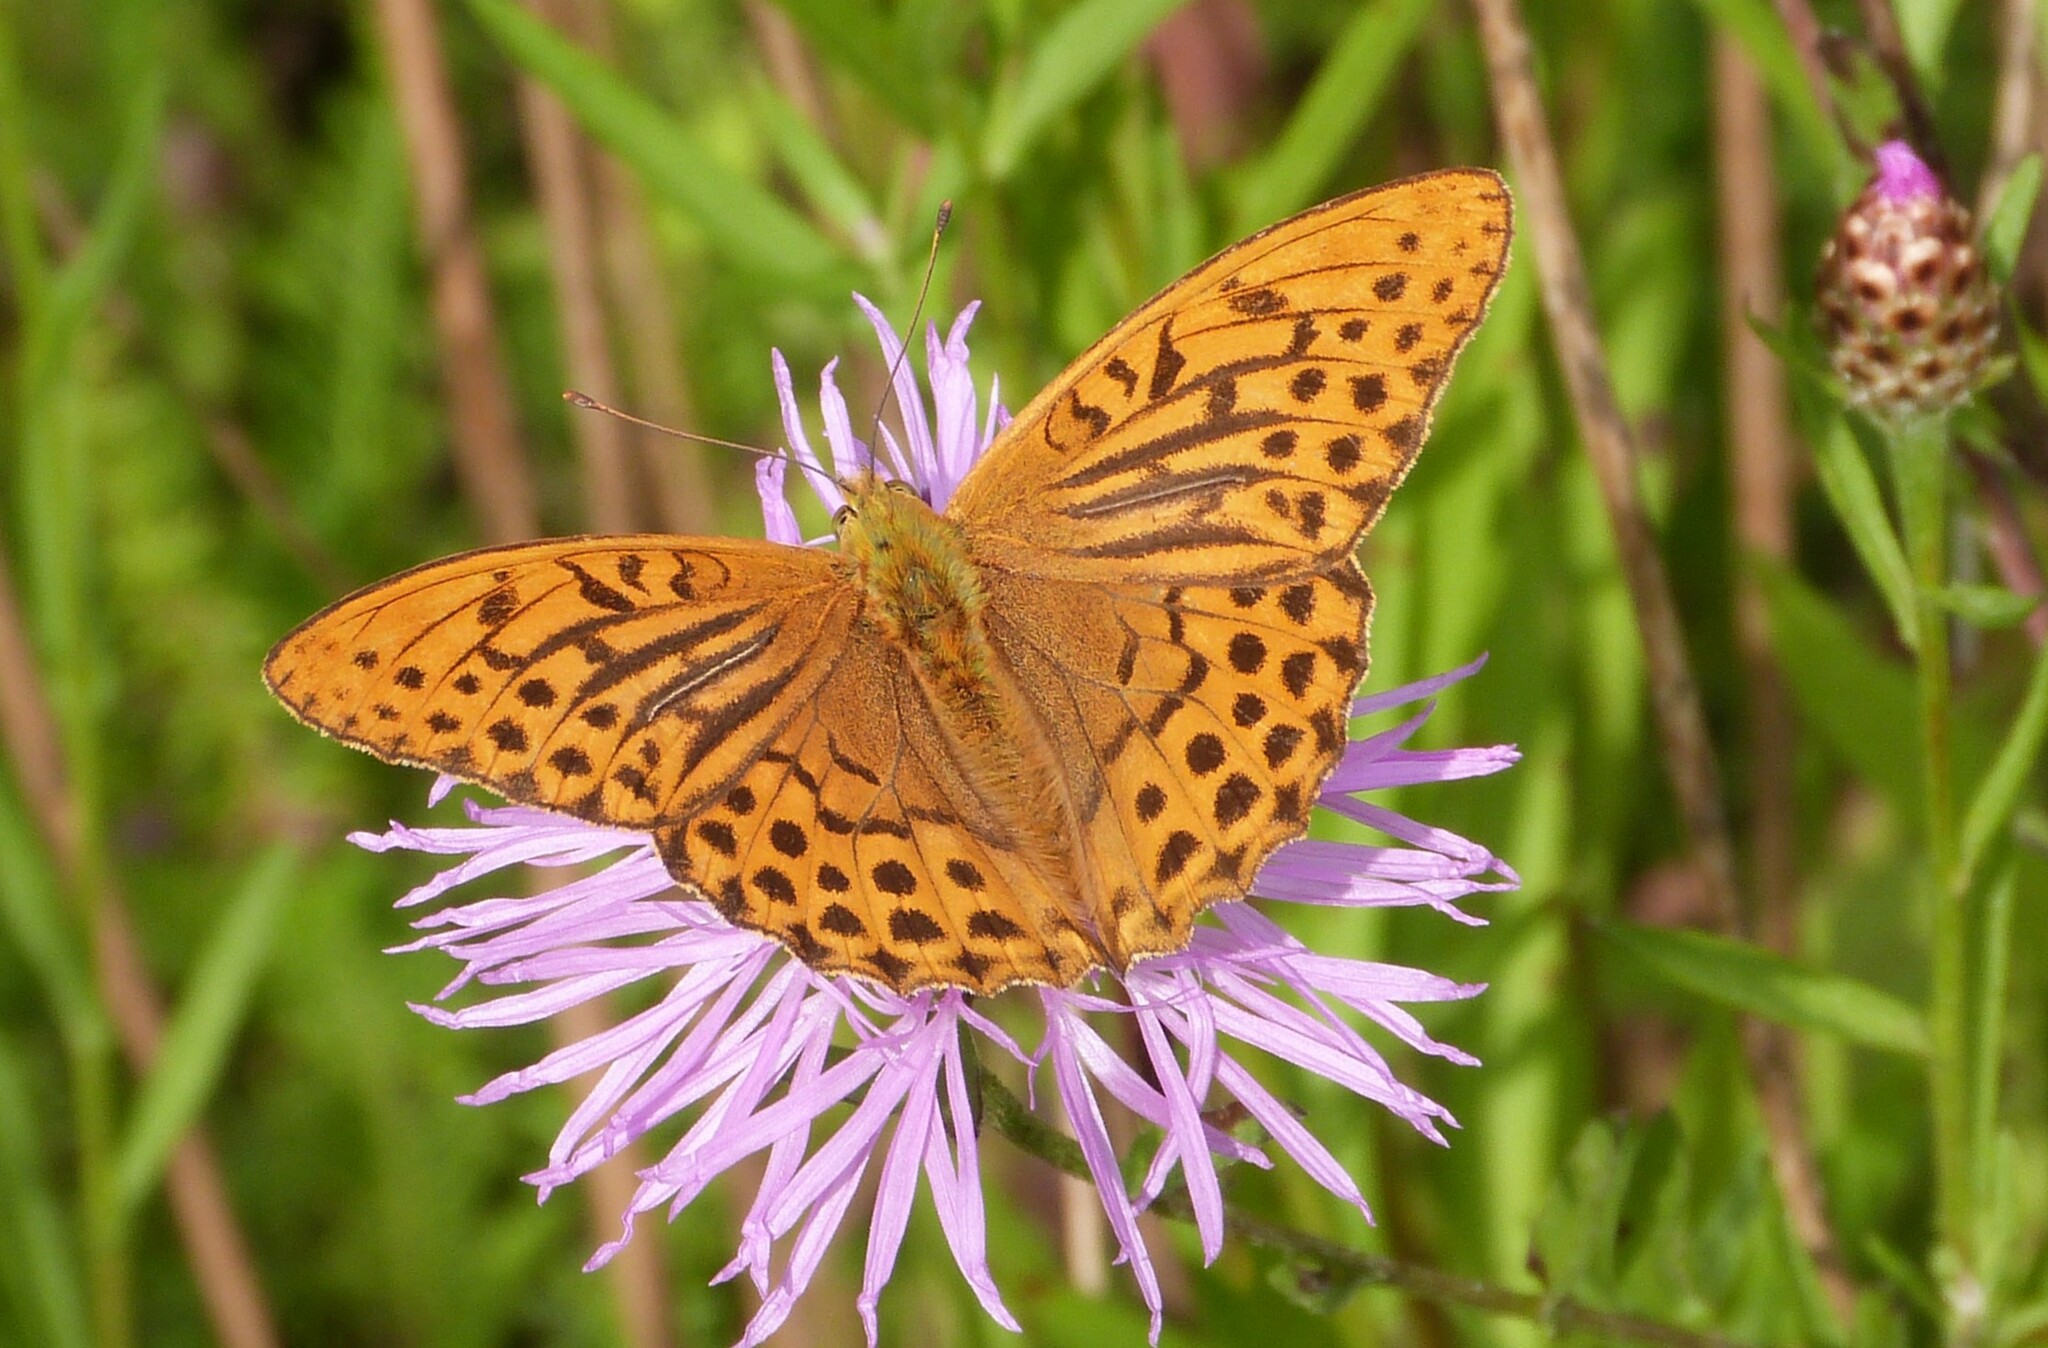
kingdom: Animalia
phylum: Arthropoda
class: Insecta
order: Lepidoptera
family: Nymphalidae
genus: Argynnis
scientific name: Argynnis paphia
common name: Silver-washed fritillary
